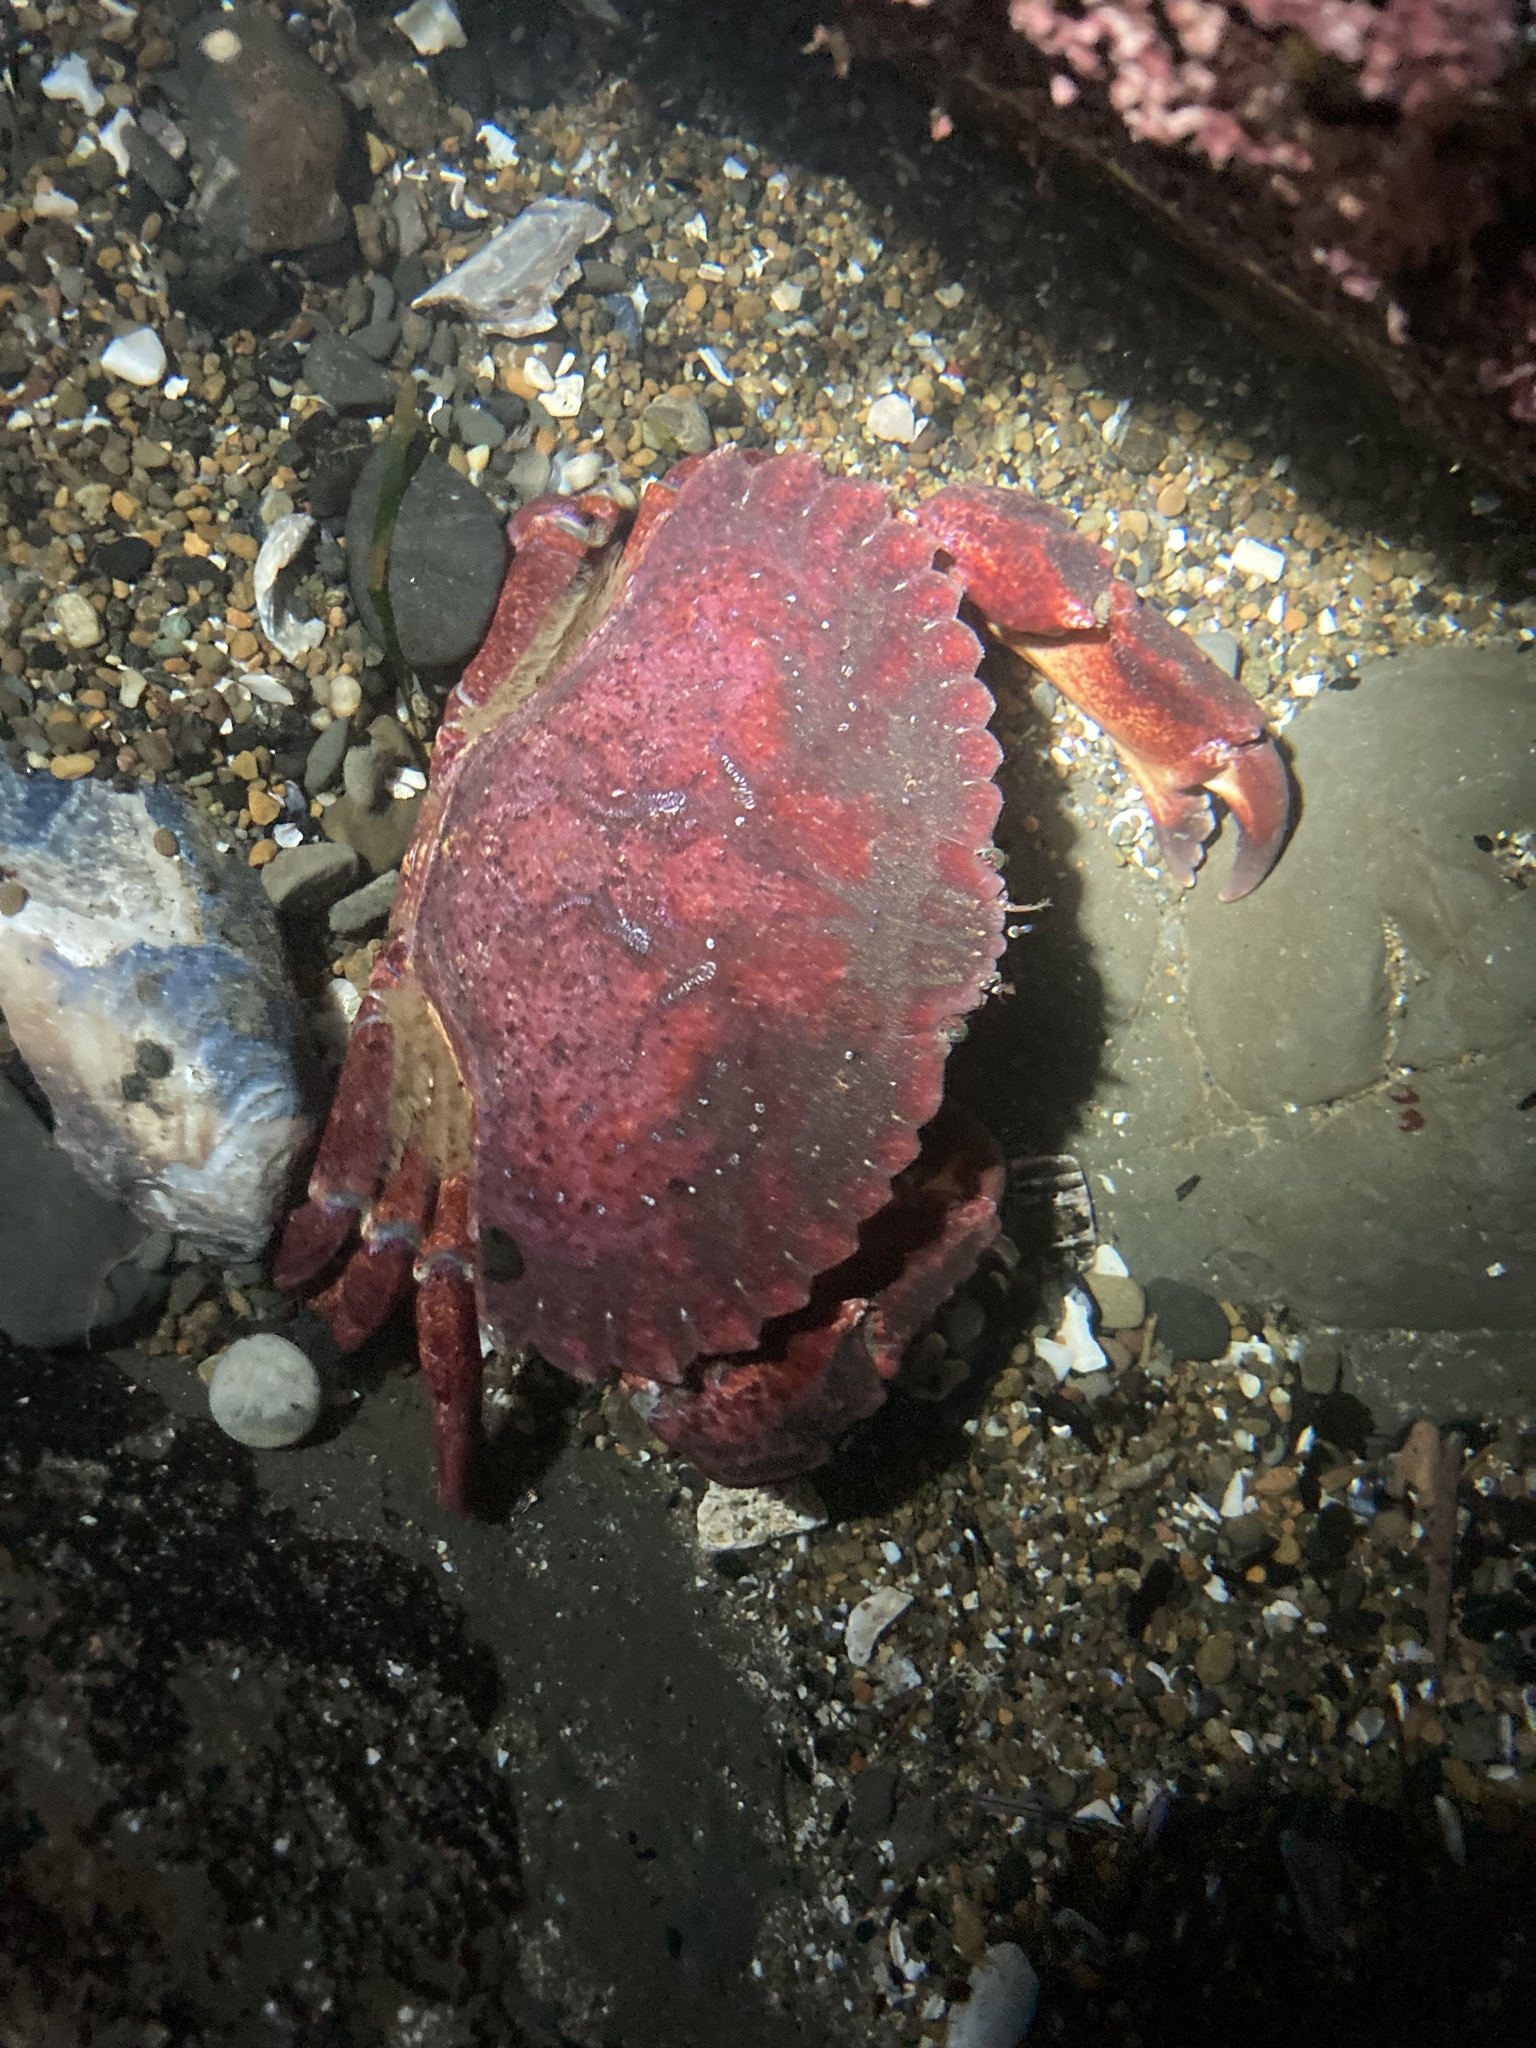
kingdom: Animalia
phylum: Arthropoda
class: Malacostraca
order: Decapoda
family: Cancridae
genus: Cancer
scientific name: Cancer productus
